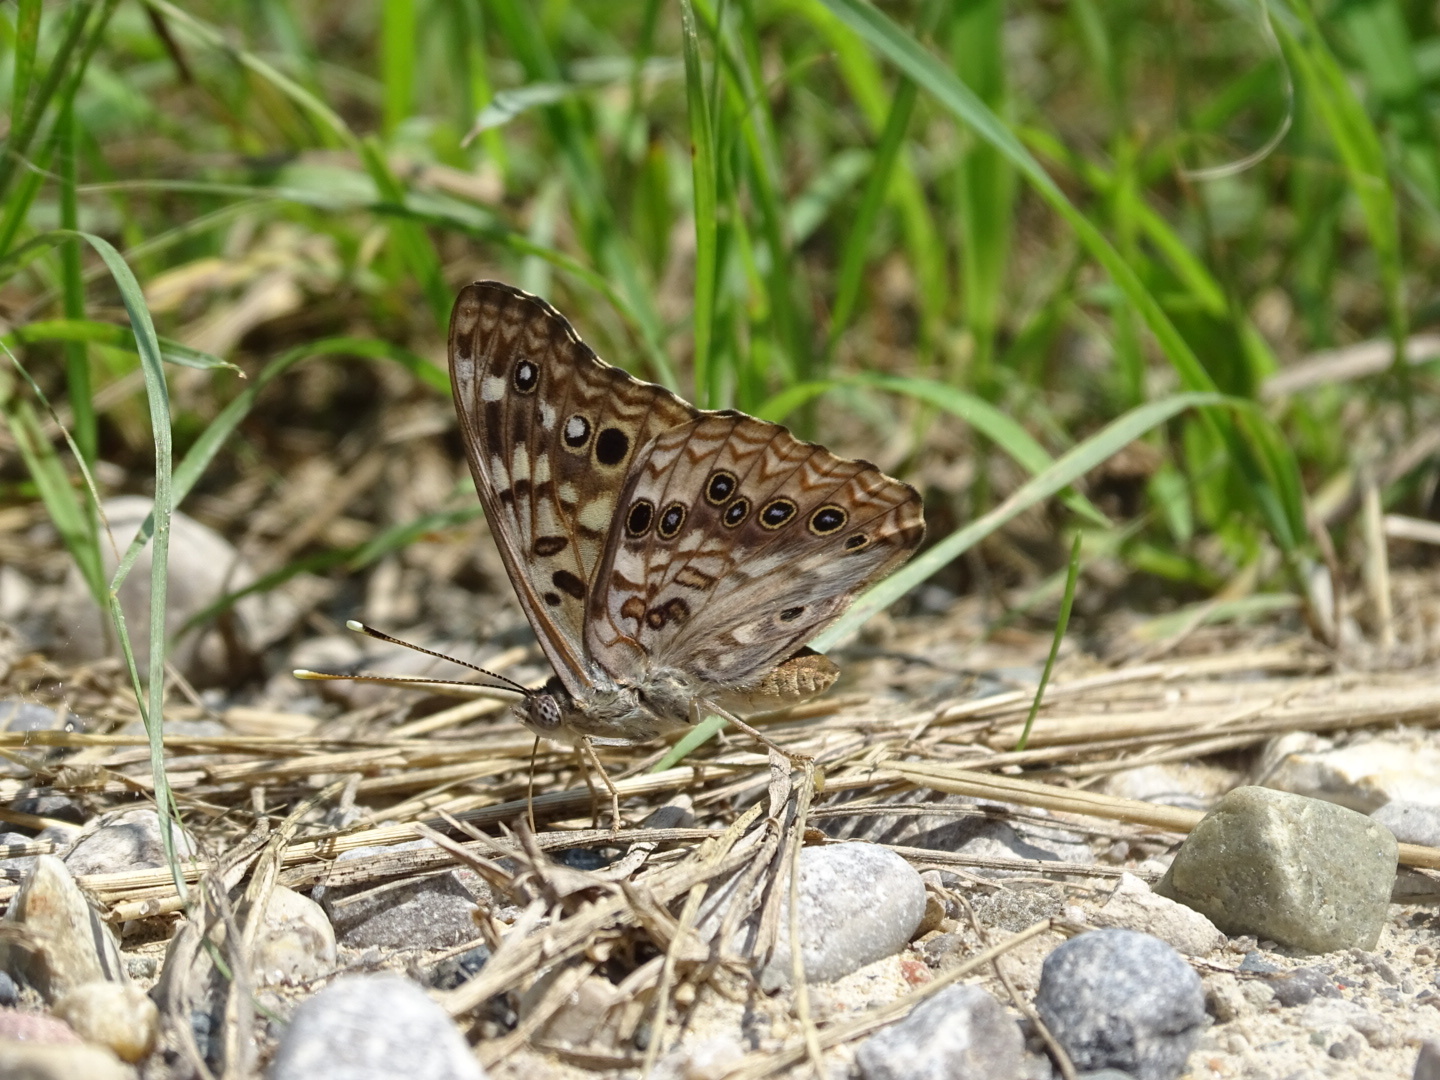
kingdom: Animalia
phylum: Arthropoda
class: Insecta
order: Lepidoptera
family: Nymphalidae
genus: Asterocampa
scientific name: Asterocampa celtis
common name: Hackberry emperor
